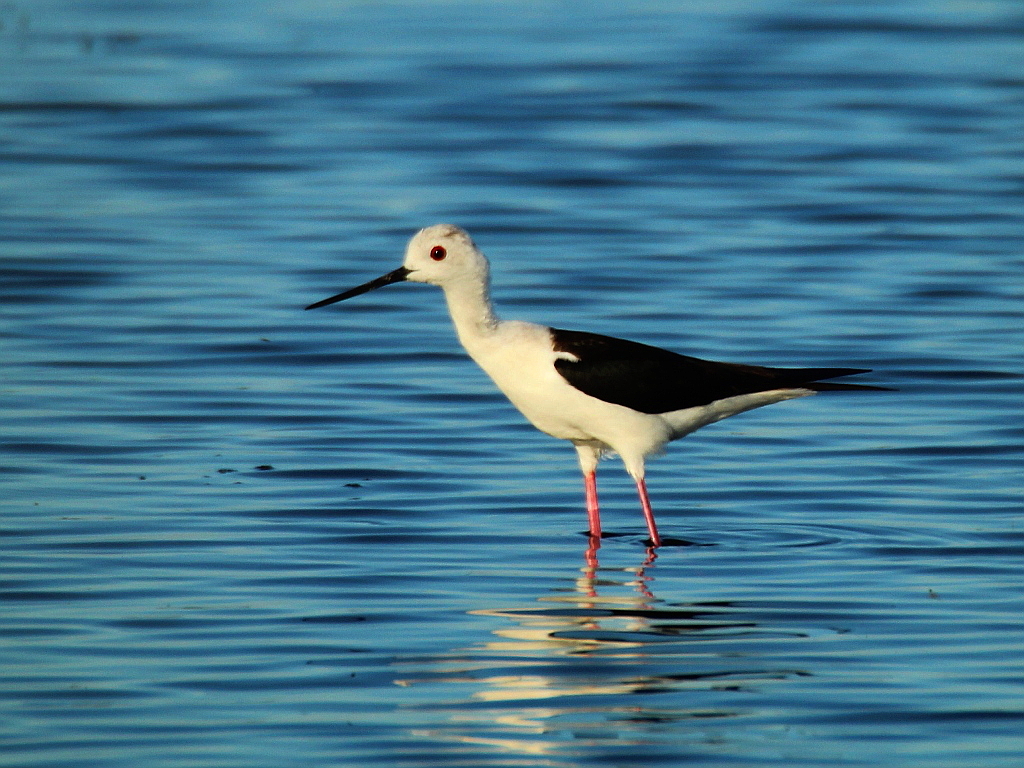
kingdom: Animalia
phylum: Chordata
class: Aves
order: Charadriiformes
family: Recurvirostridae
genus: Himantopus
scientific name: Himantopus himantopus
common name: Black-winged stilt
